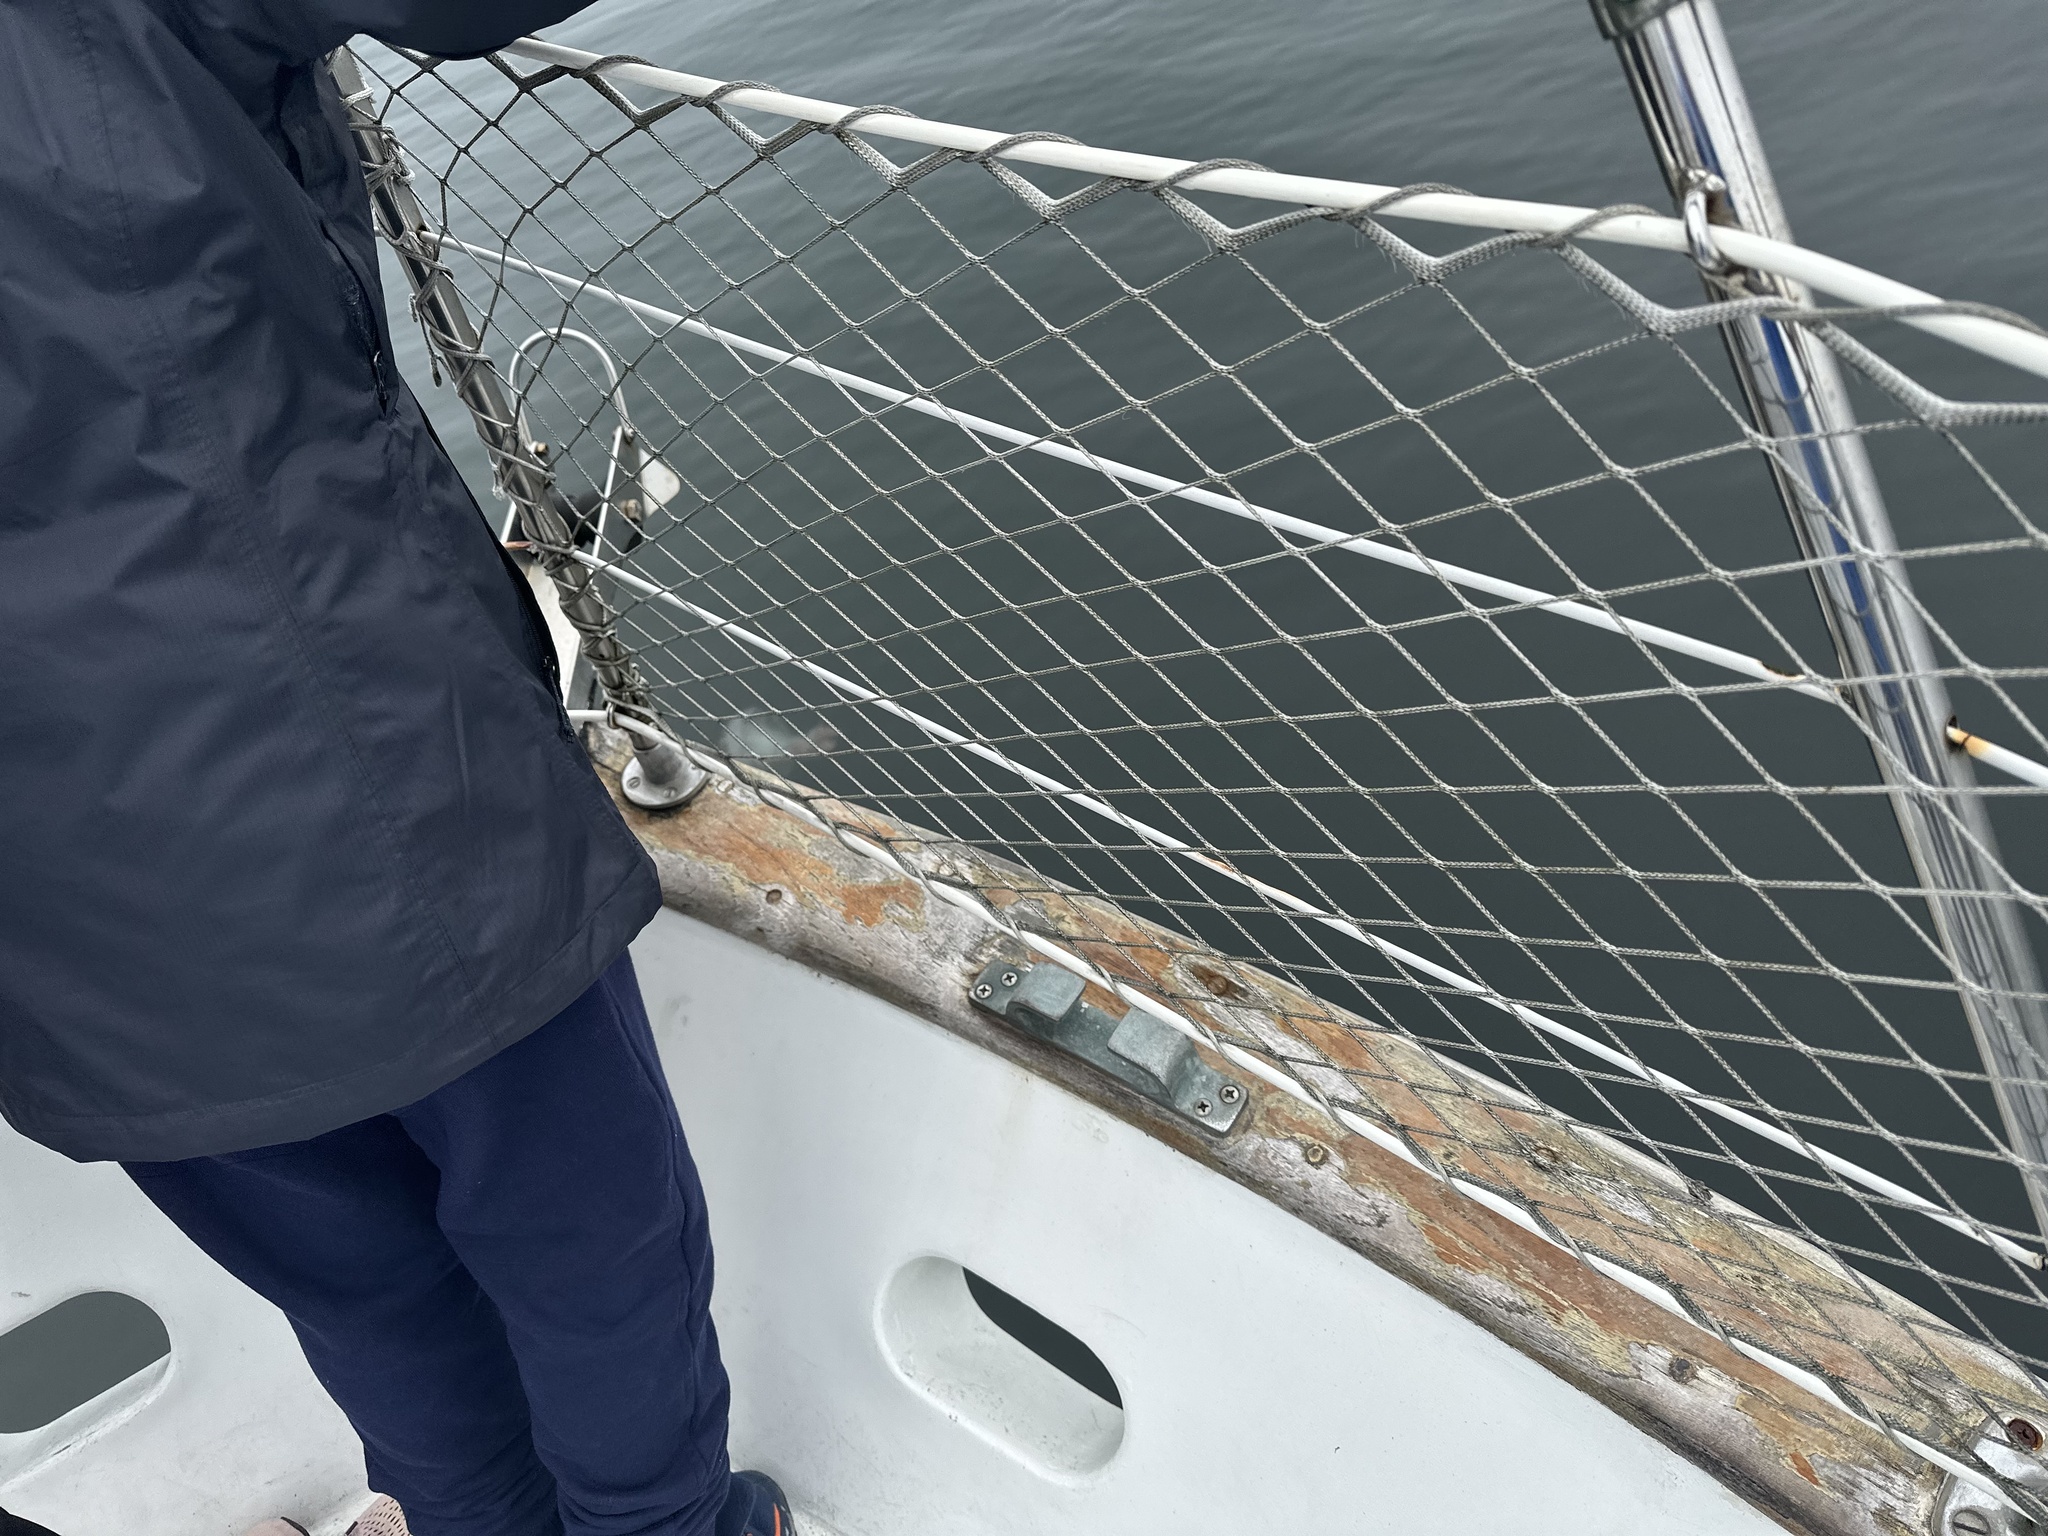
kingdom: Animalia
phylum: Cnidaria
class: Scyphozoa
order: Semaeostomeae
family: Pelagiidae
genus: Chrysaora
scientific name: Chrysaora colorata
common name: Purple-striped jellyfish
